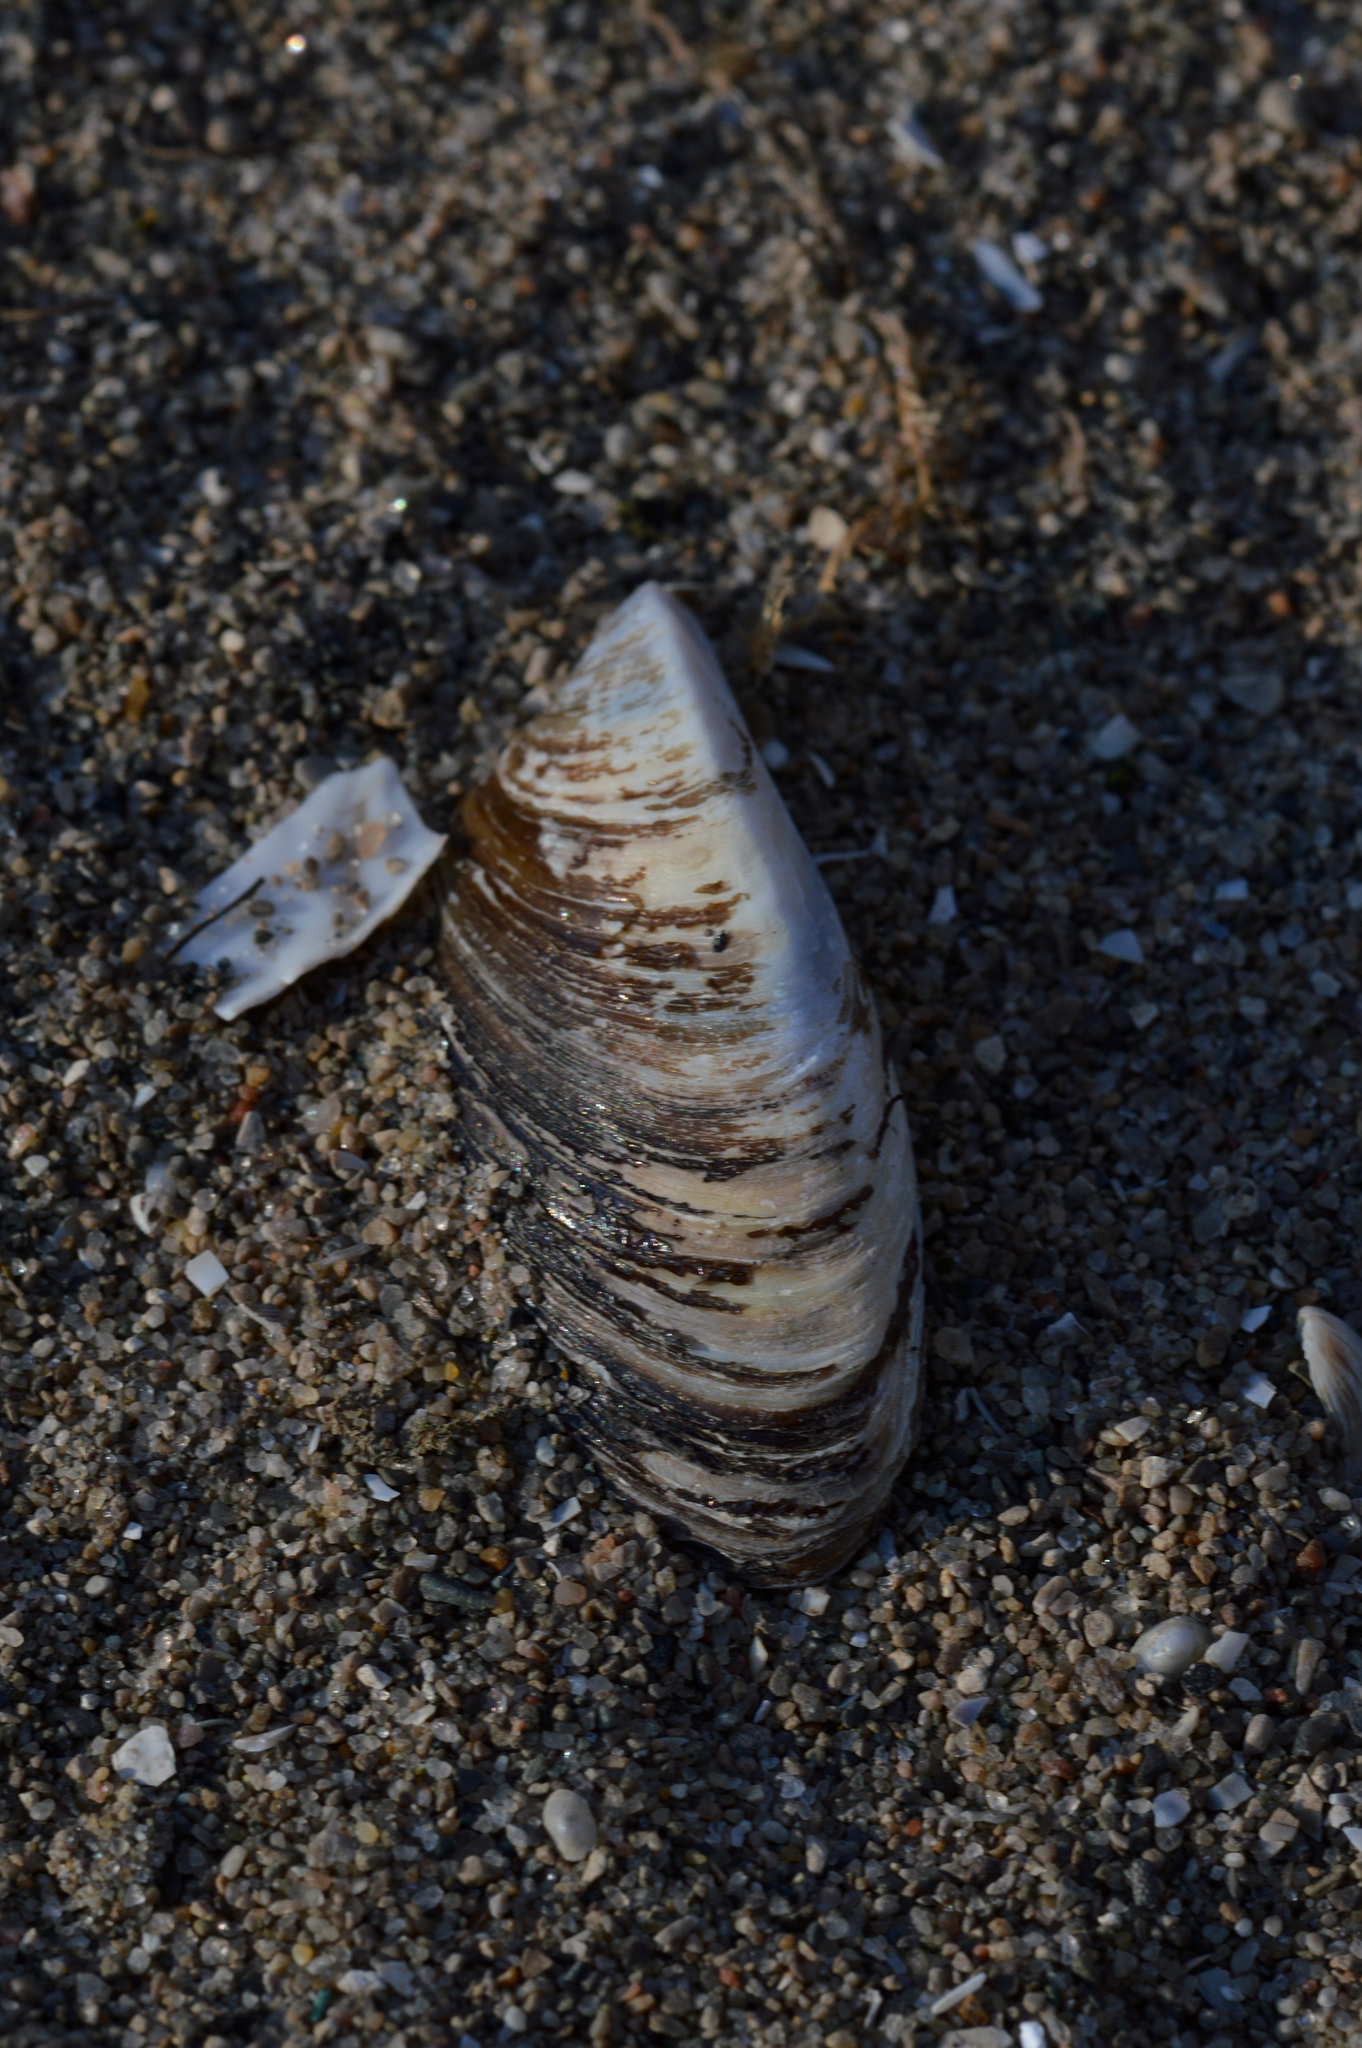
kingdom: Animalia
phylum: Mollusca
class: Bivalvia
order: Myida
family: Dreissenidae
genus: Dreissena
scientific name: Dreissena polymorpha
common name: Zebra mussel
